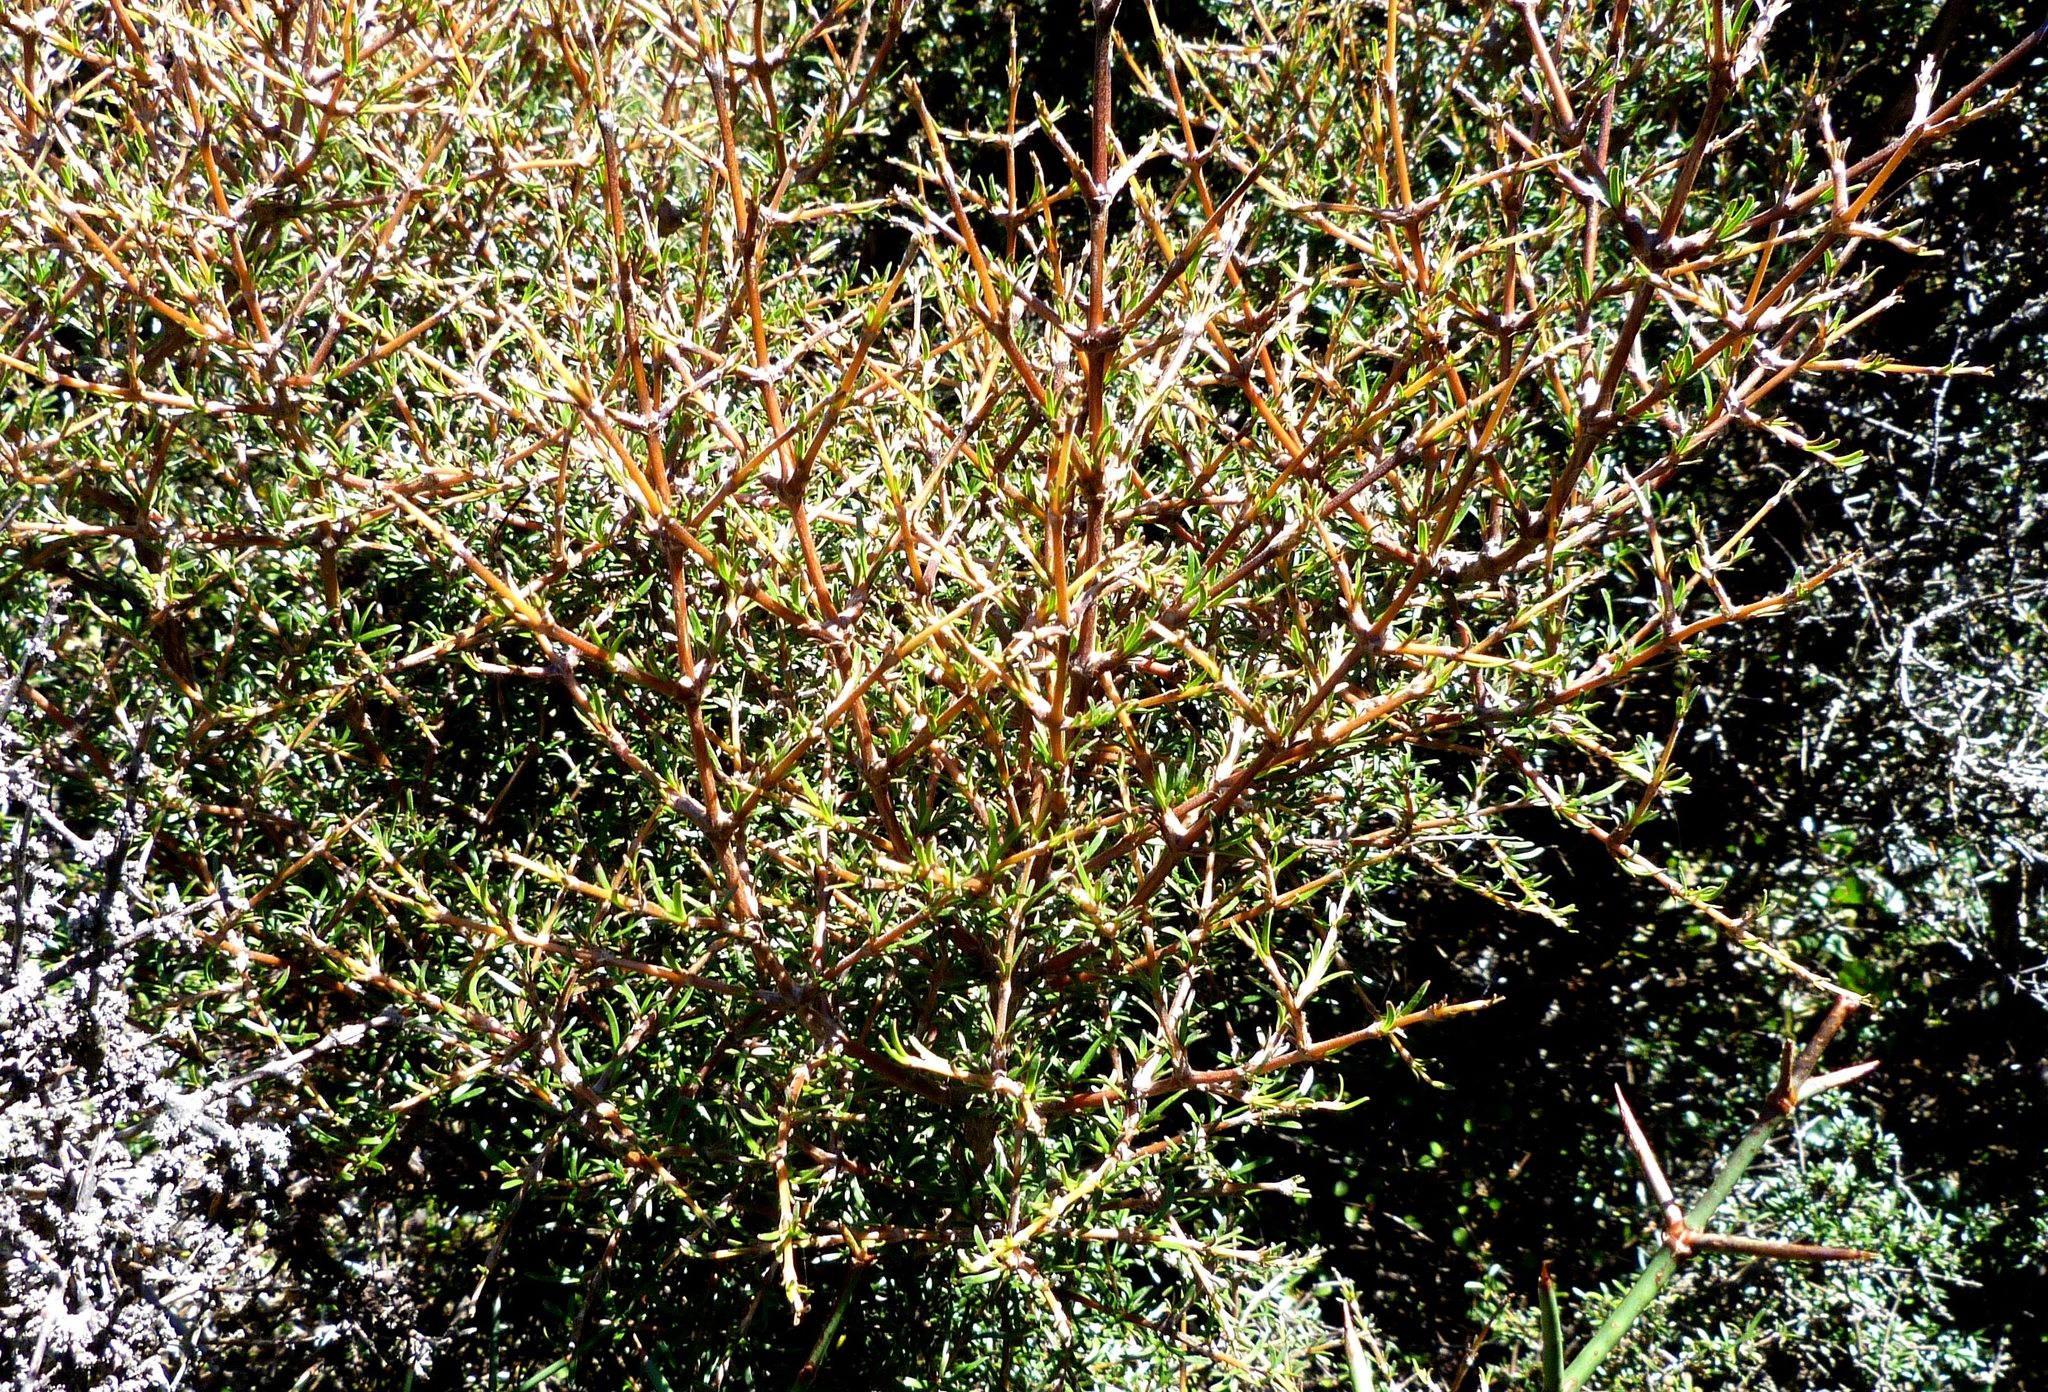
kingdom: Plantae
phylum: Tracheophyta
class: Magnoliopsida
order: Gentianales
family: Rubiaceae
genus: Coprosma
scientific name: Coprosma rugosa
